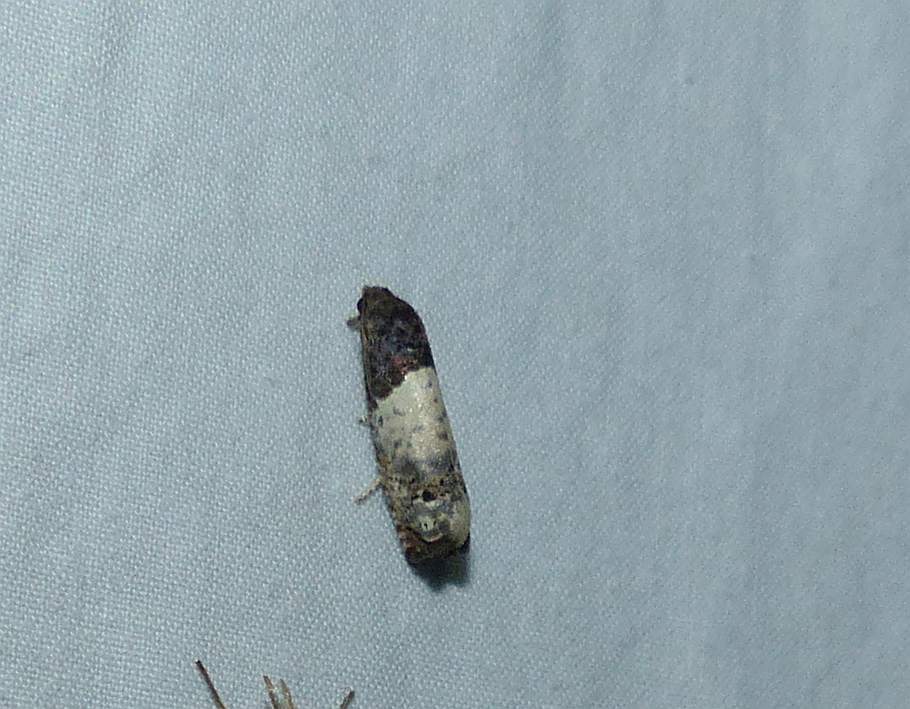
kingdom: Animalia
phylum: Arthropoda
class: Insecta
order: Lepidoptera
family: Tortricidae
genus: Epiblema
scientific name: Epiblema scudderiana
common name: Goldenrod gall moth
